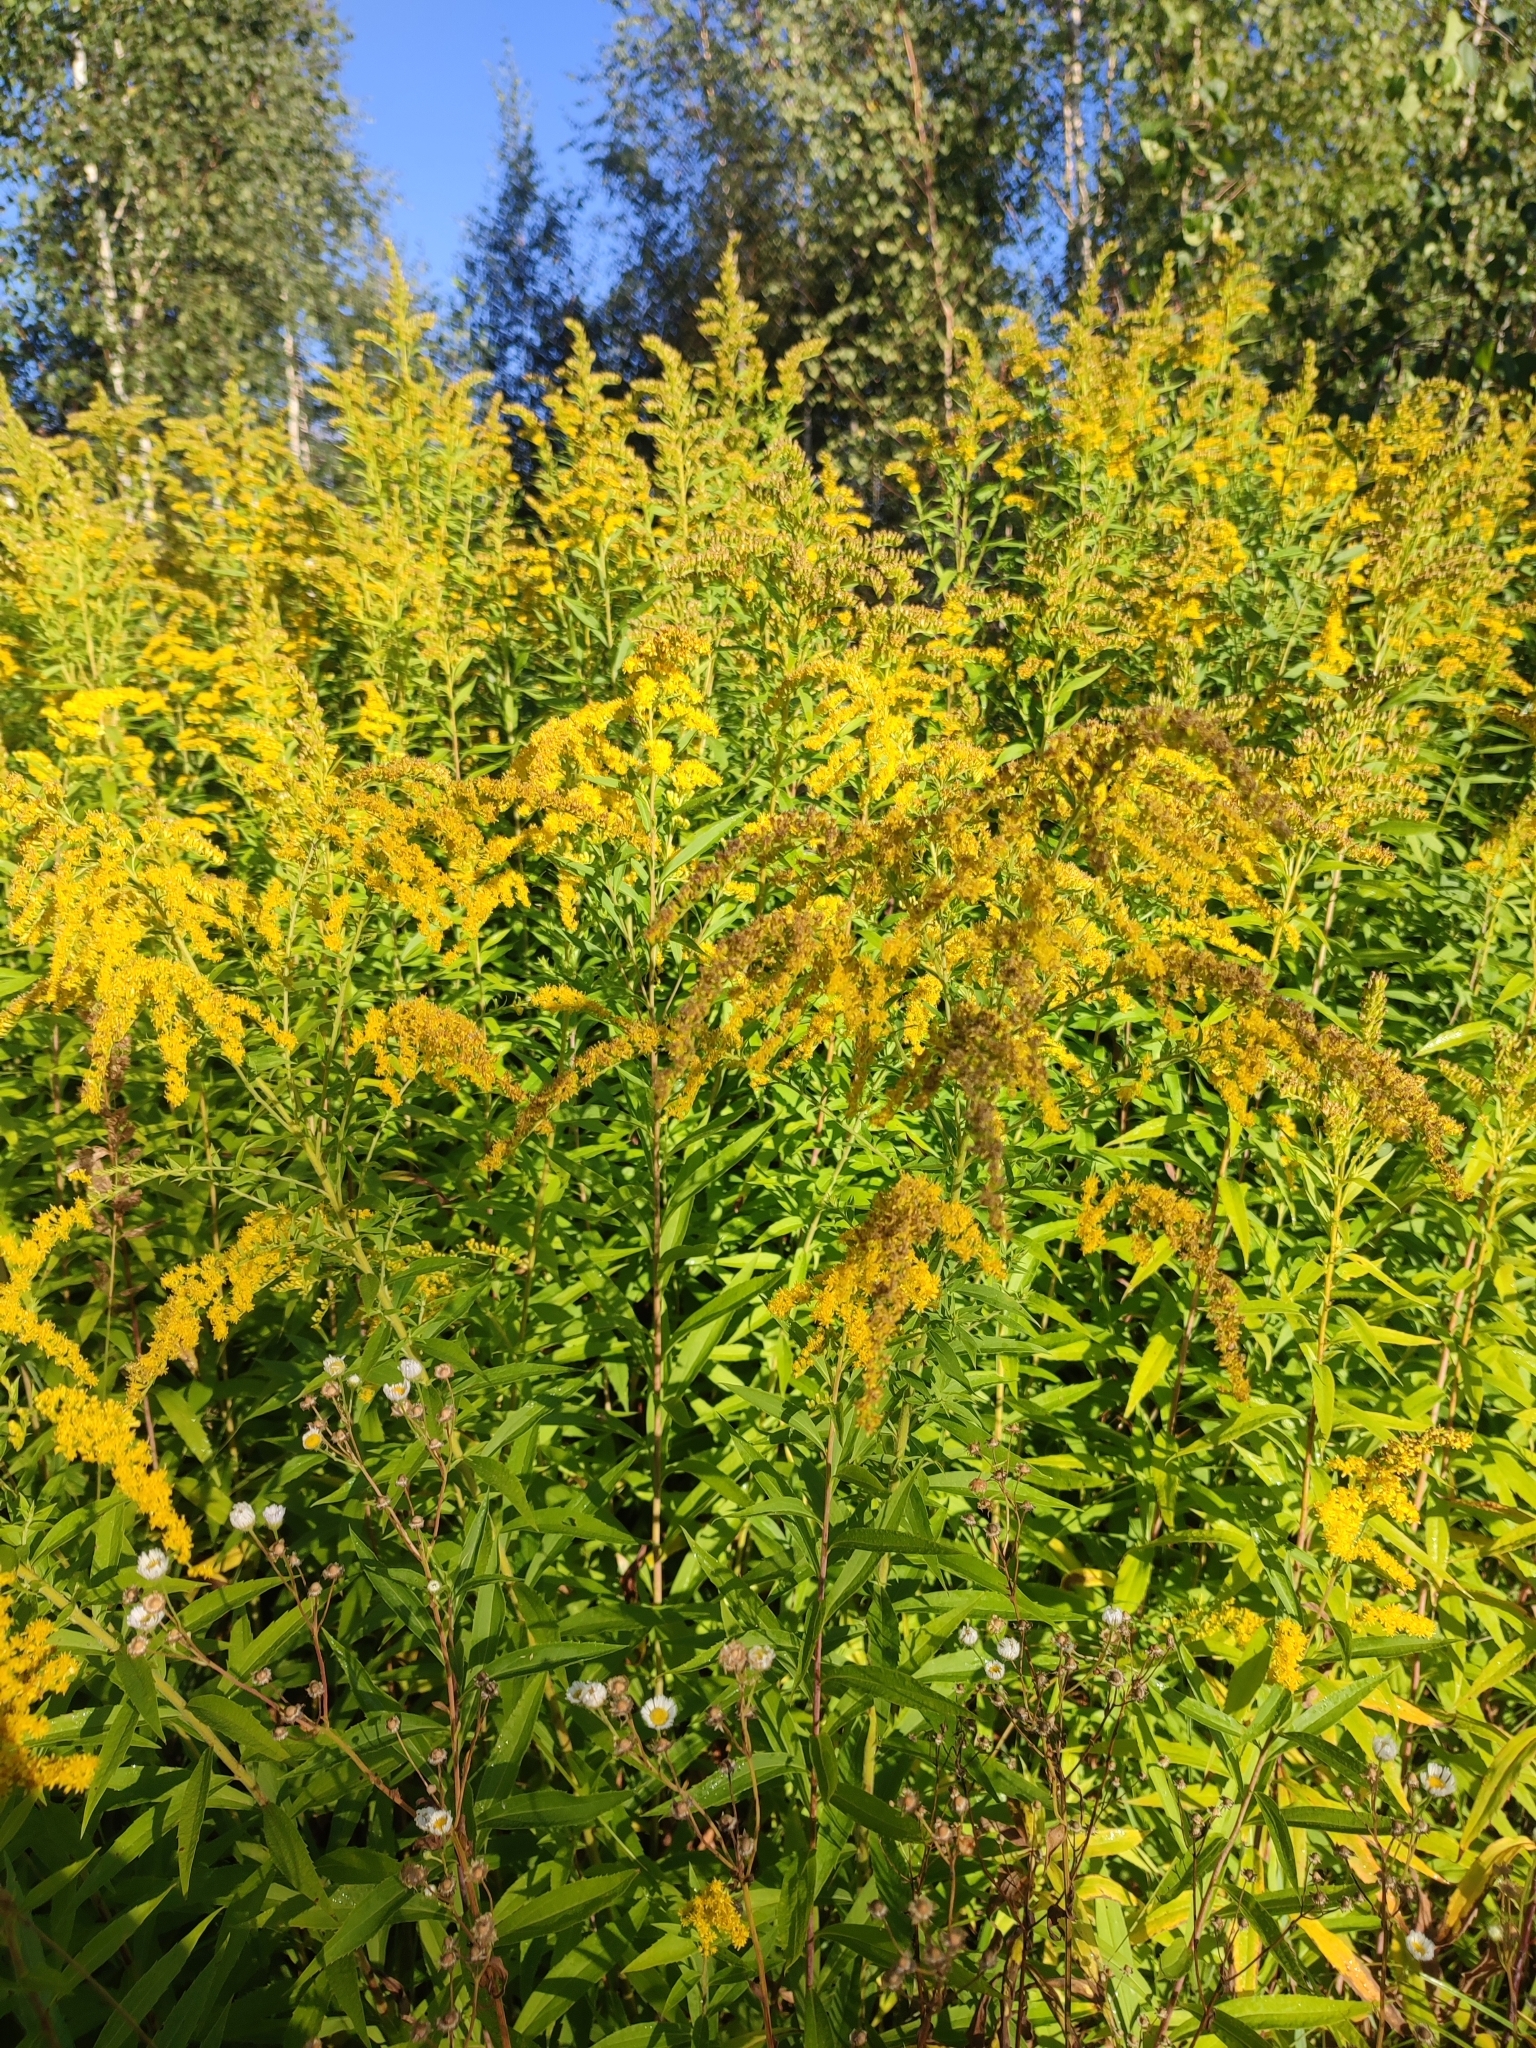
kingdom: Plantae
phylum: Tracheophyta
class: Magnoliopsida
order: Asterales
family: Asteraceae
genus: Solidago
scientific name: Solidago gigantea
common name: Giant goldenrod
